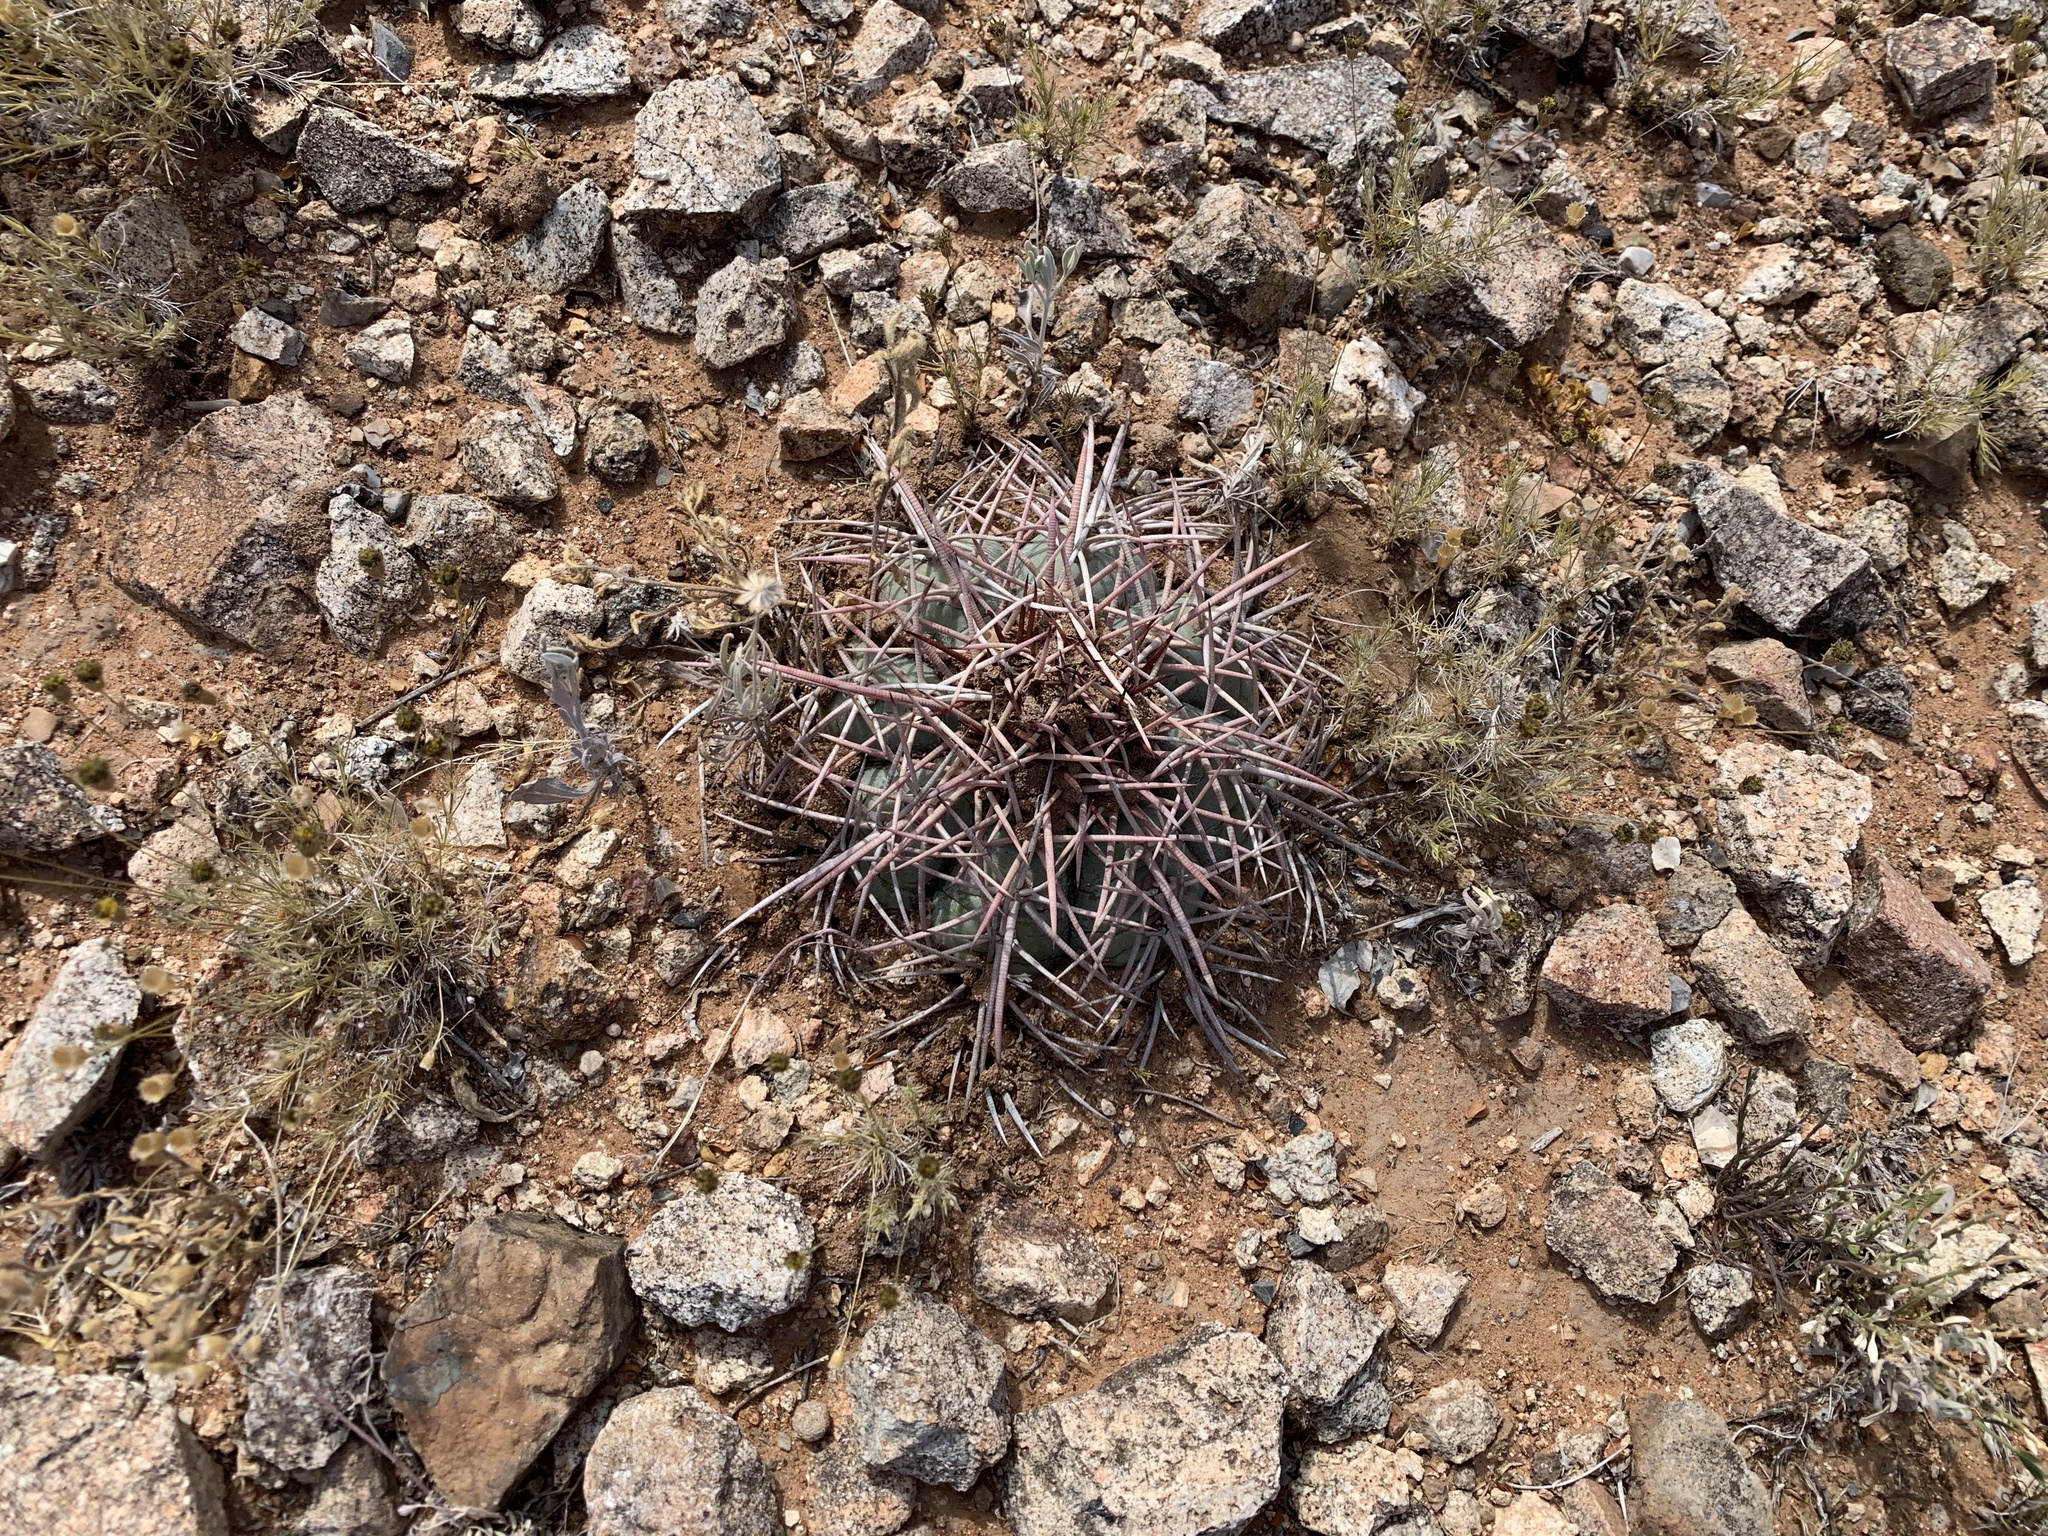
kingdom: Plantae
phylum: Tracheophyta
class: Magnoliopsida
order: Caryophyllales
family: Cactaceae
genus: Echinocactus
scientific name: Echinocactus horizonthalonius
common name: Devilshead
